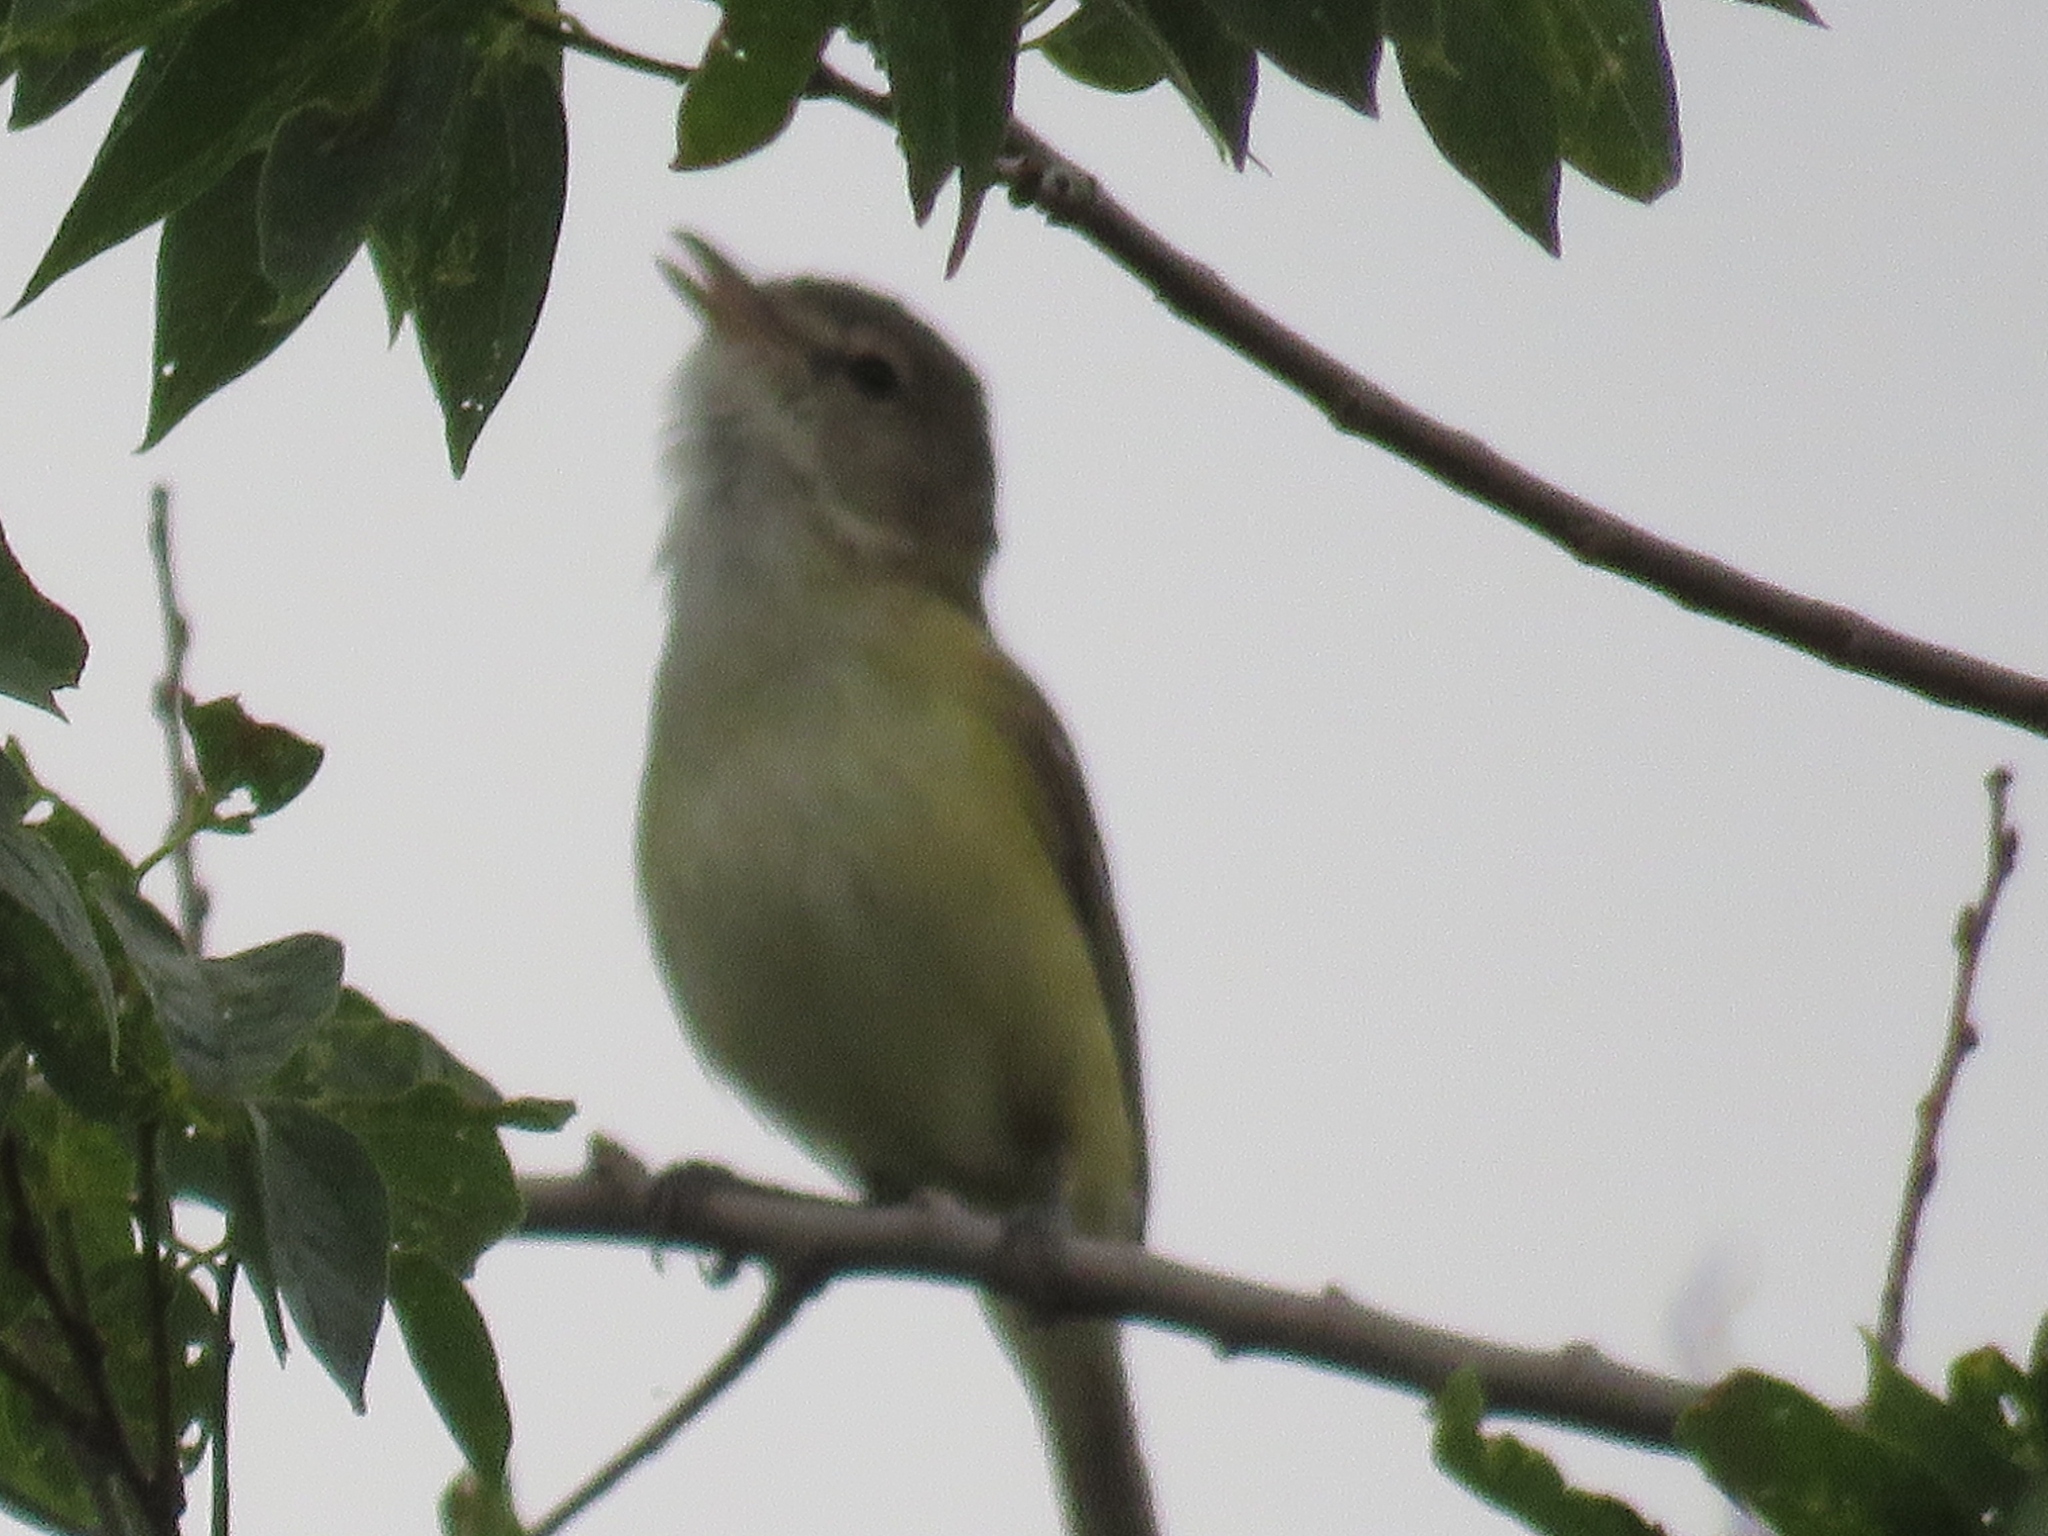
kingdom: Animalia
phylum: Chordata
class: Aves
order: Passeriformes
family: Vireonidae
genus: Vireo
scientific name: Vireo bellii
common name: Bell's vireo
